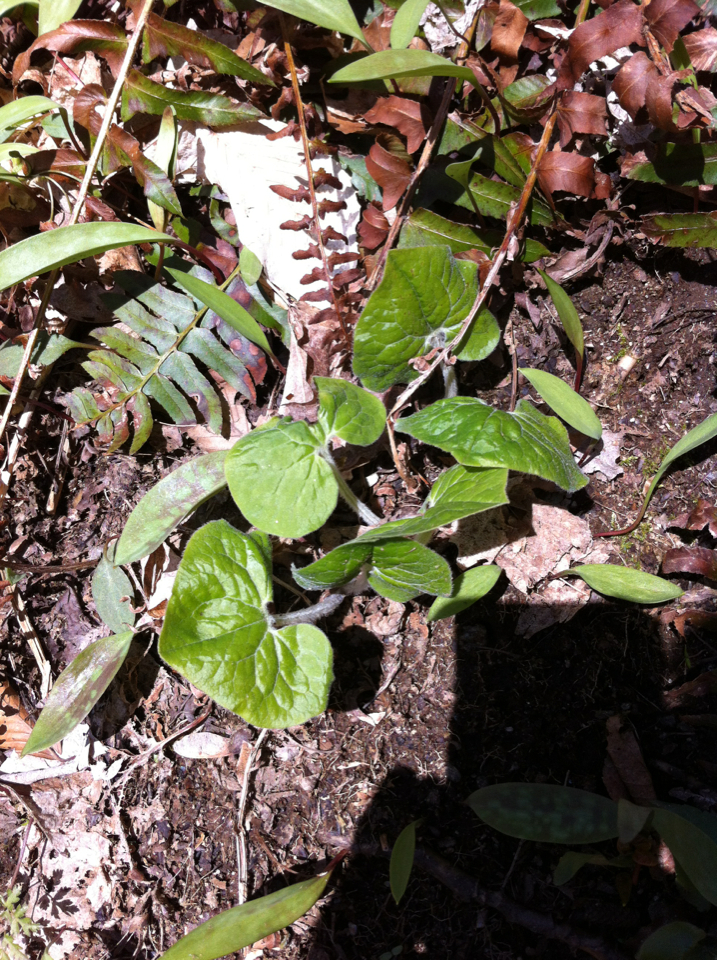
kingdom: Plantae
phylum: Tracheophyta
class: Magnoliopsida
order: Piperales
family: Aristolochiaceae
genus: Asarum
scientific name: Asarum canadense
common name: Wild ginger
